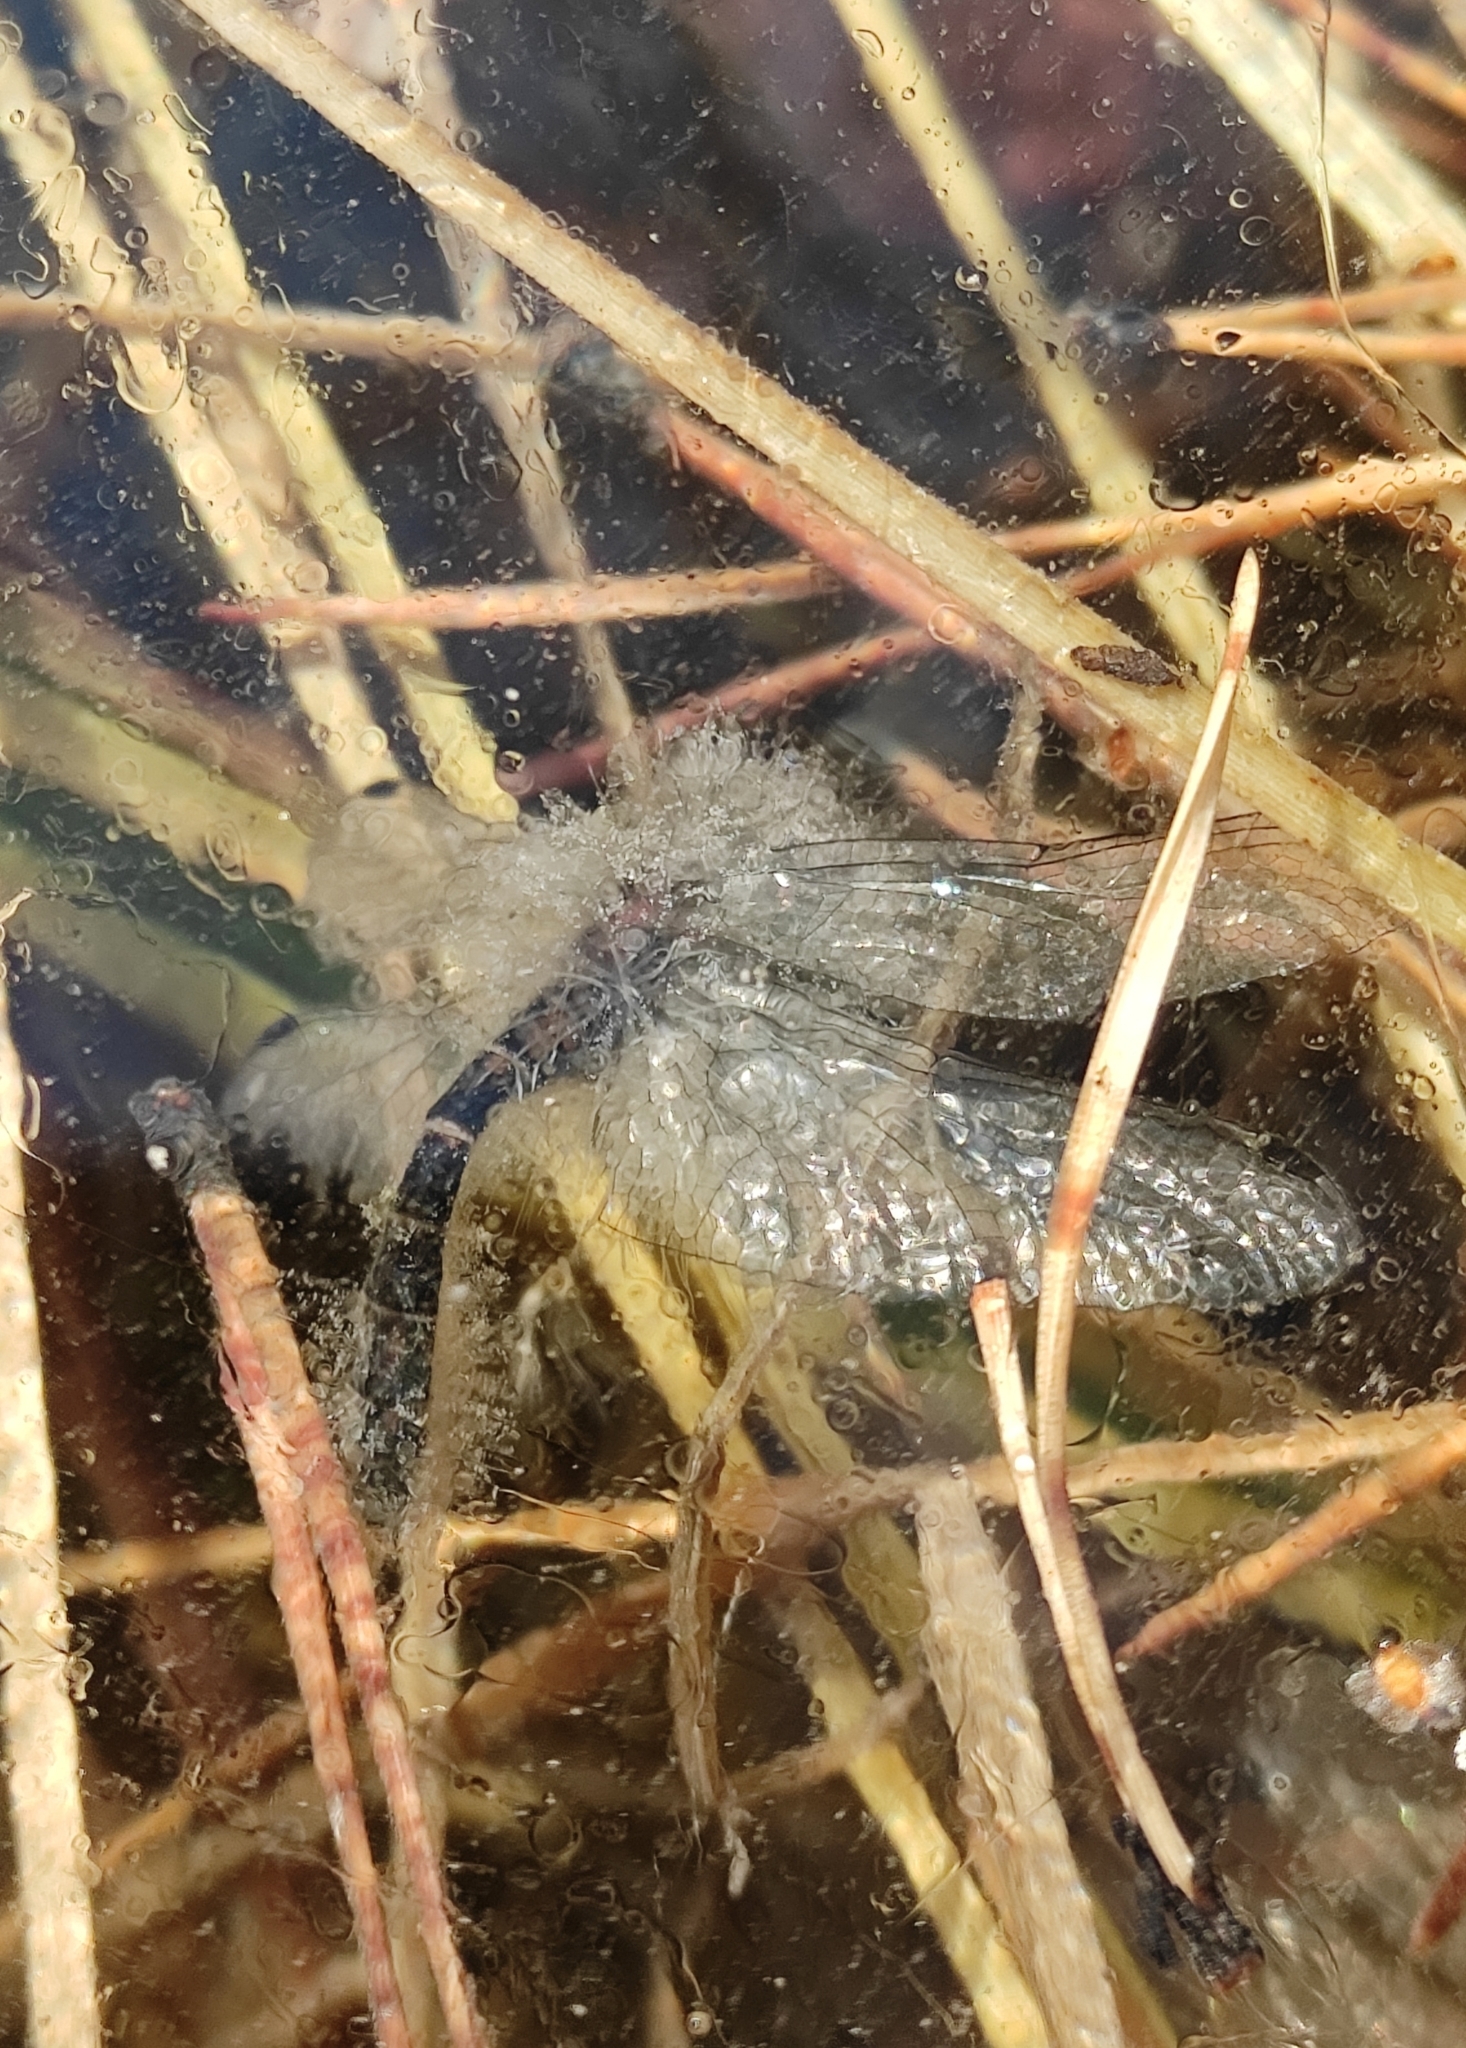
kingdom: Animalia
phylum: Arthropoda
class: Insecta
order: Odonata
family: Libellulidae
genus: Sympetrum
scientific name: Sympetrum danae
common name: Black darter
